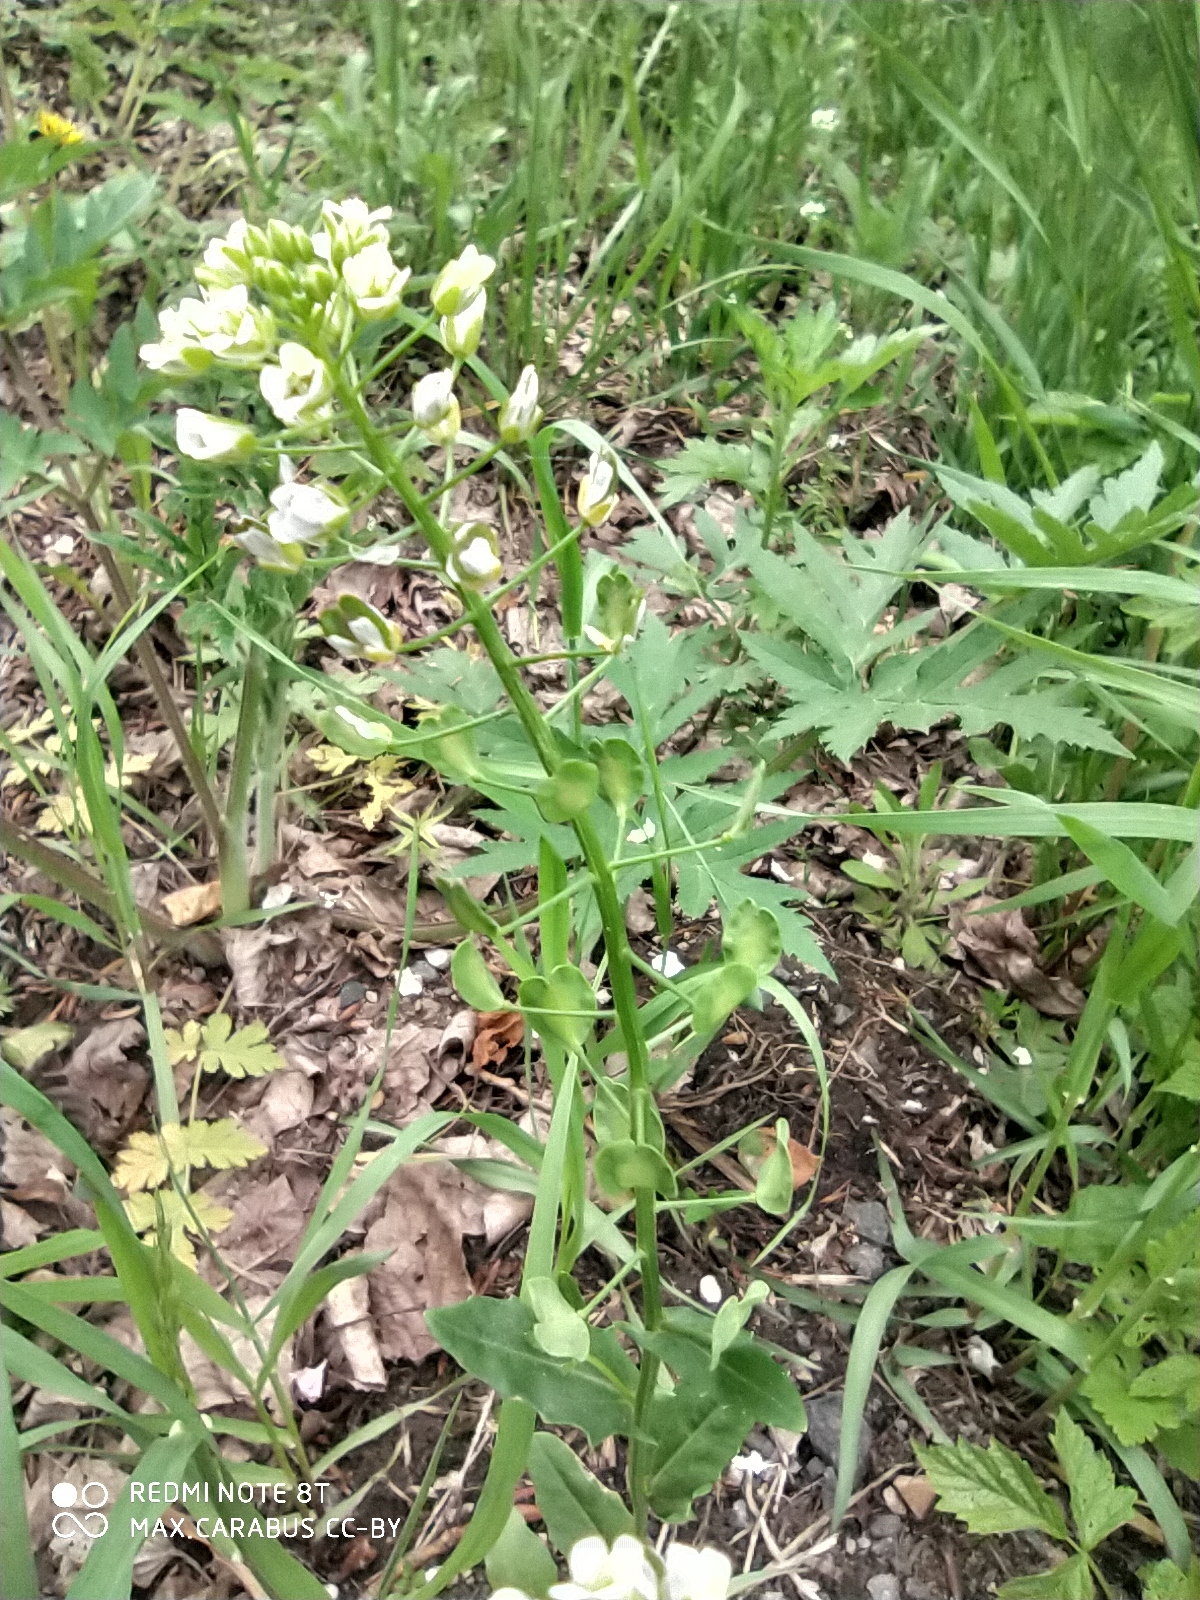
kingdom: Plantae
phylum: Tracheophyta
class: Magnoliopsida
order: Brassicales
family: Brassicaceae
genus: Thlaspi
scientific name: Thlaspi arvense
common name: Field pennycress
